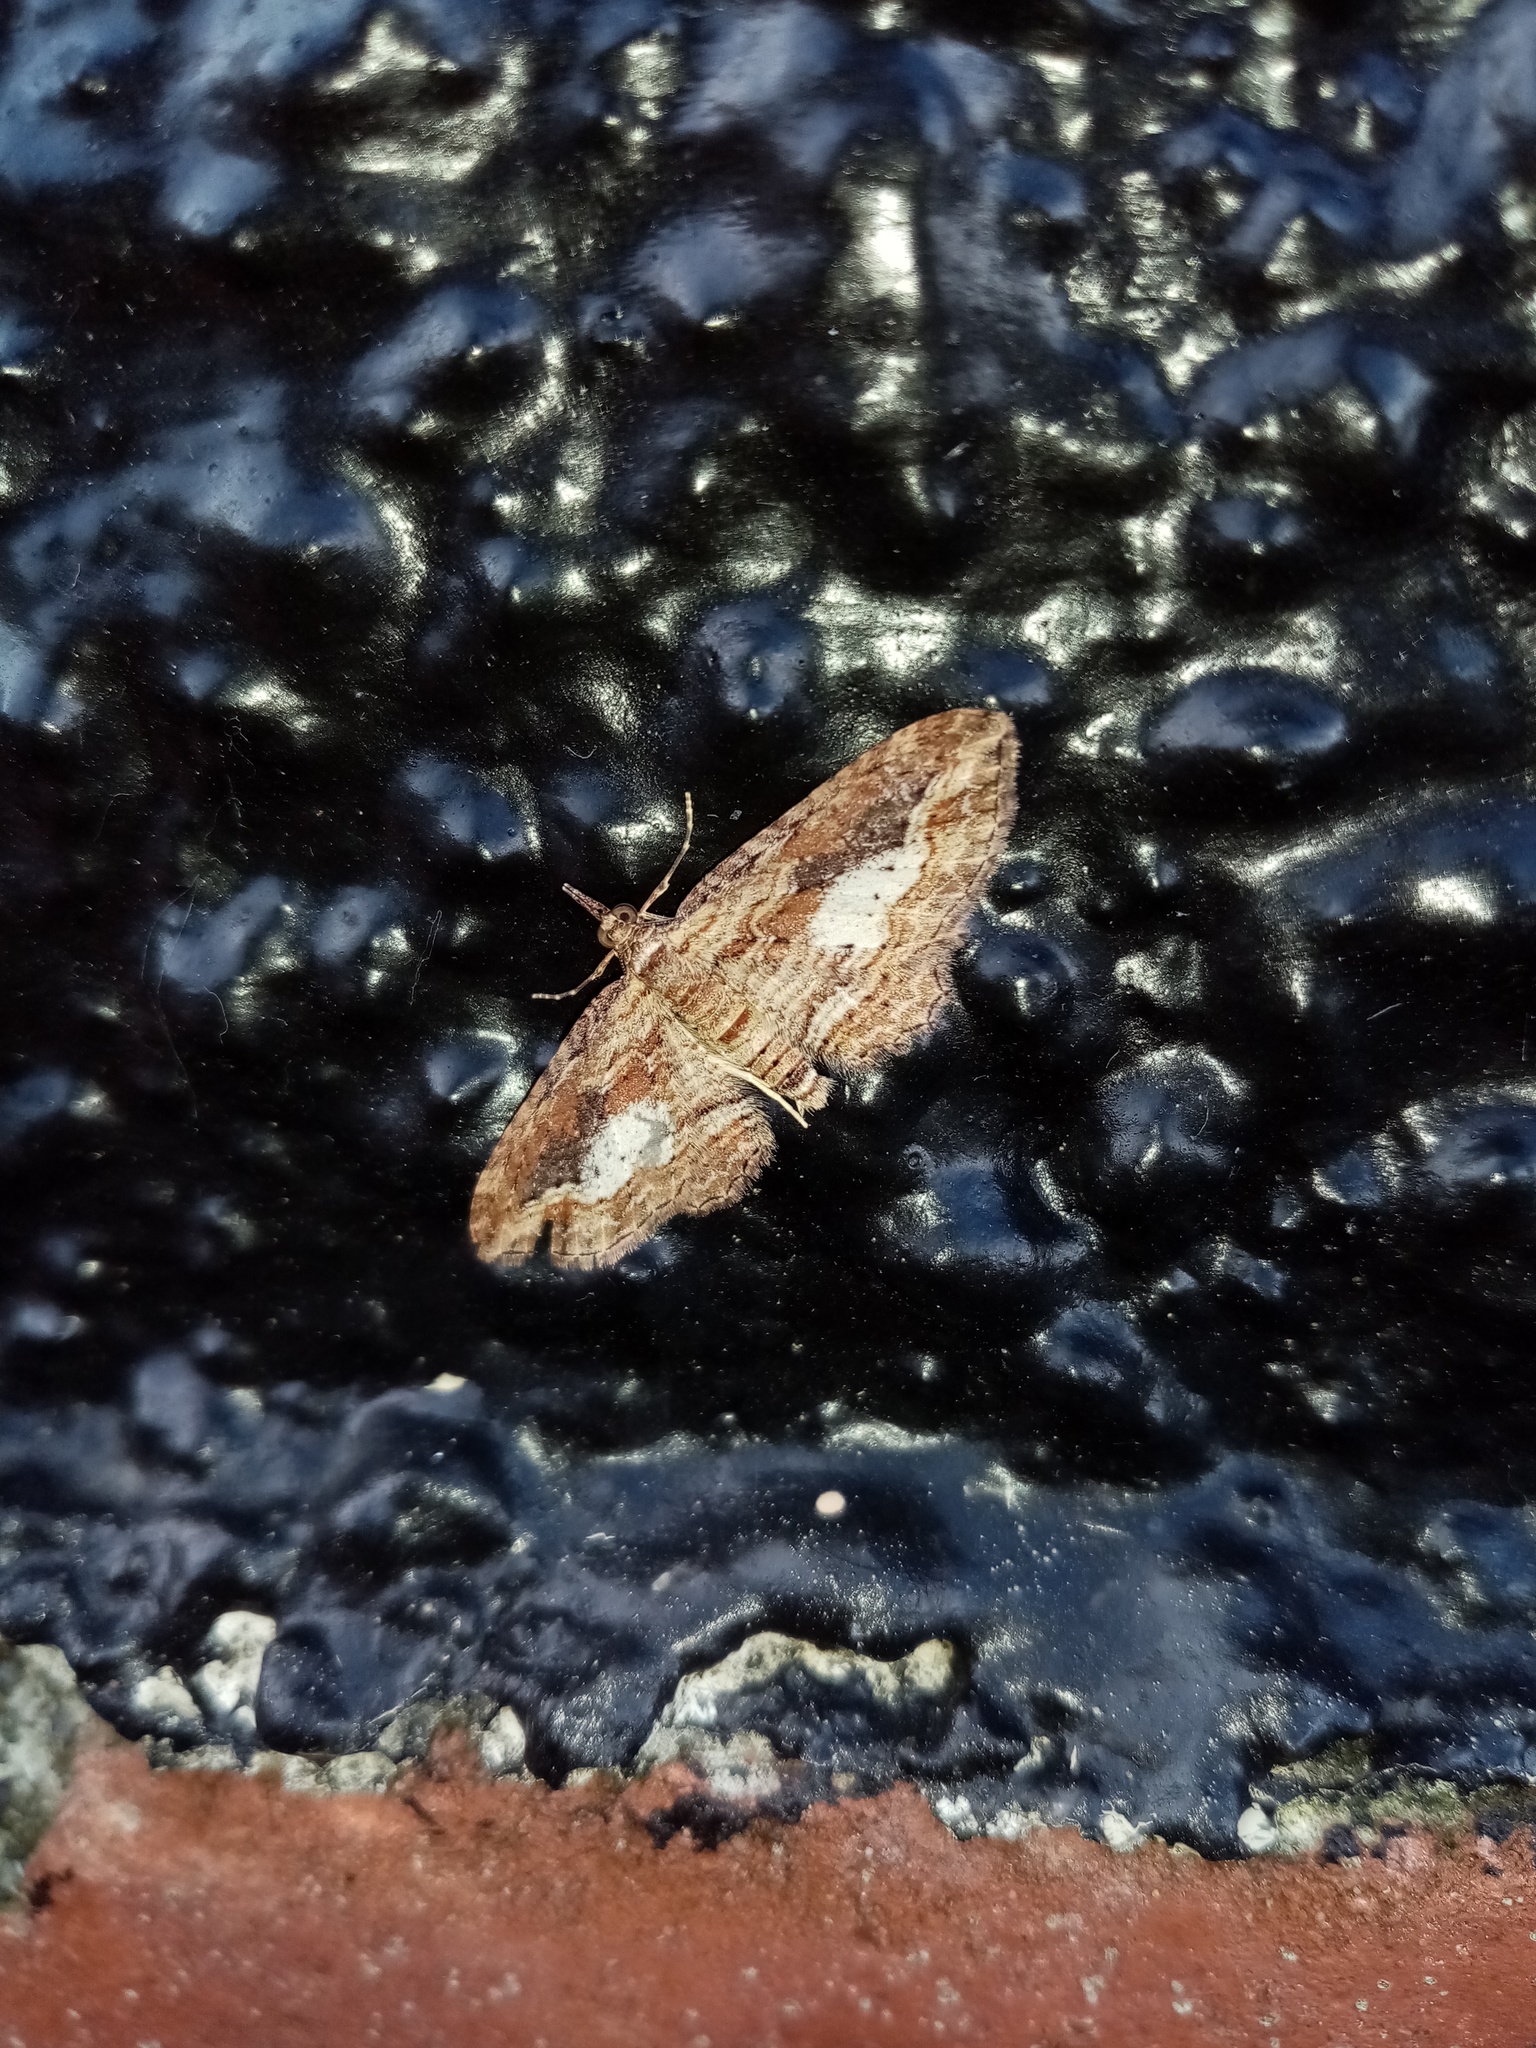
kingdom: Animalia
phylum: Arthropoda
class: Insecta
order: Lepidoptera
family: Geometridae
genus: Chloroclystis
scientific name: Chloroclystis filata
